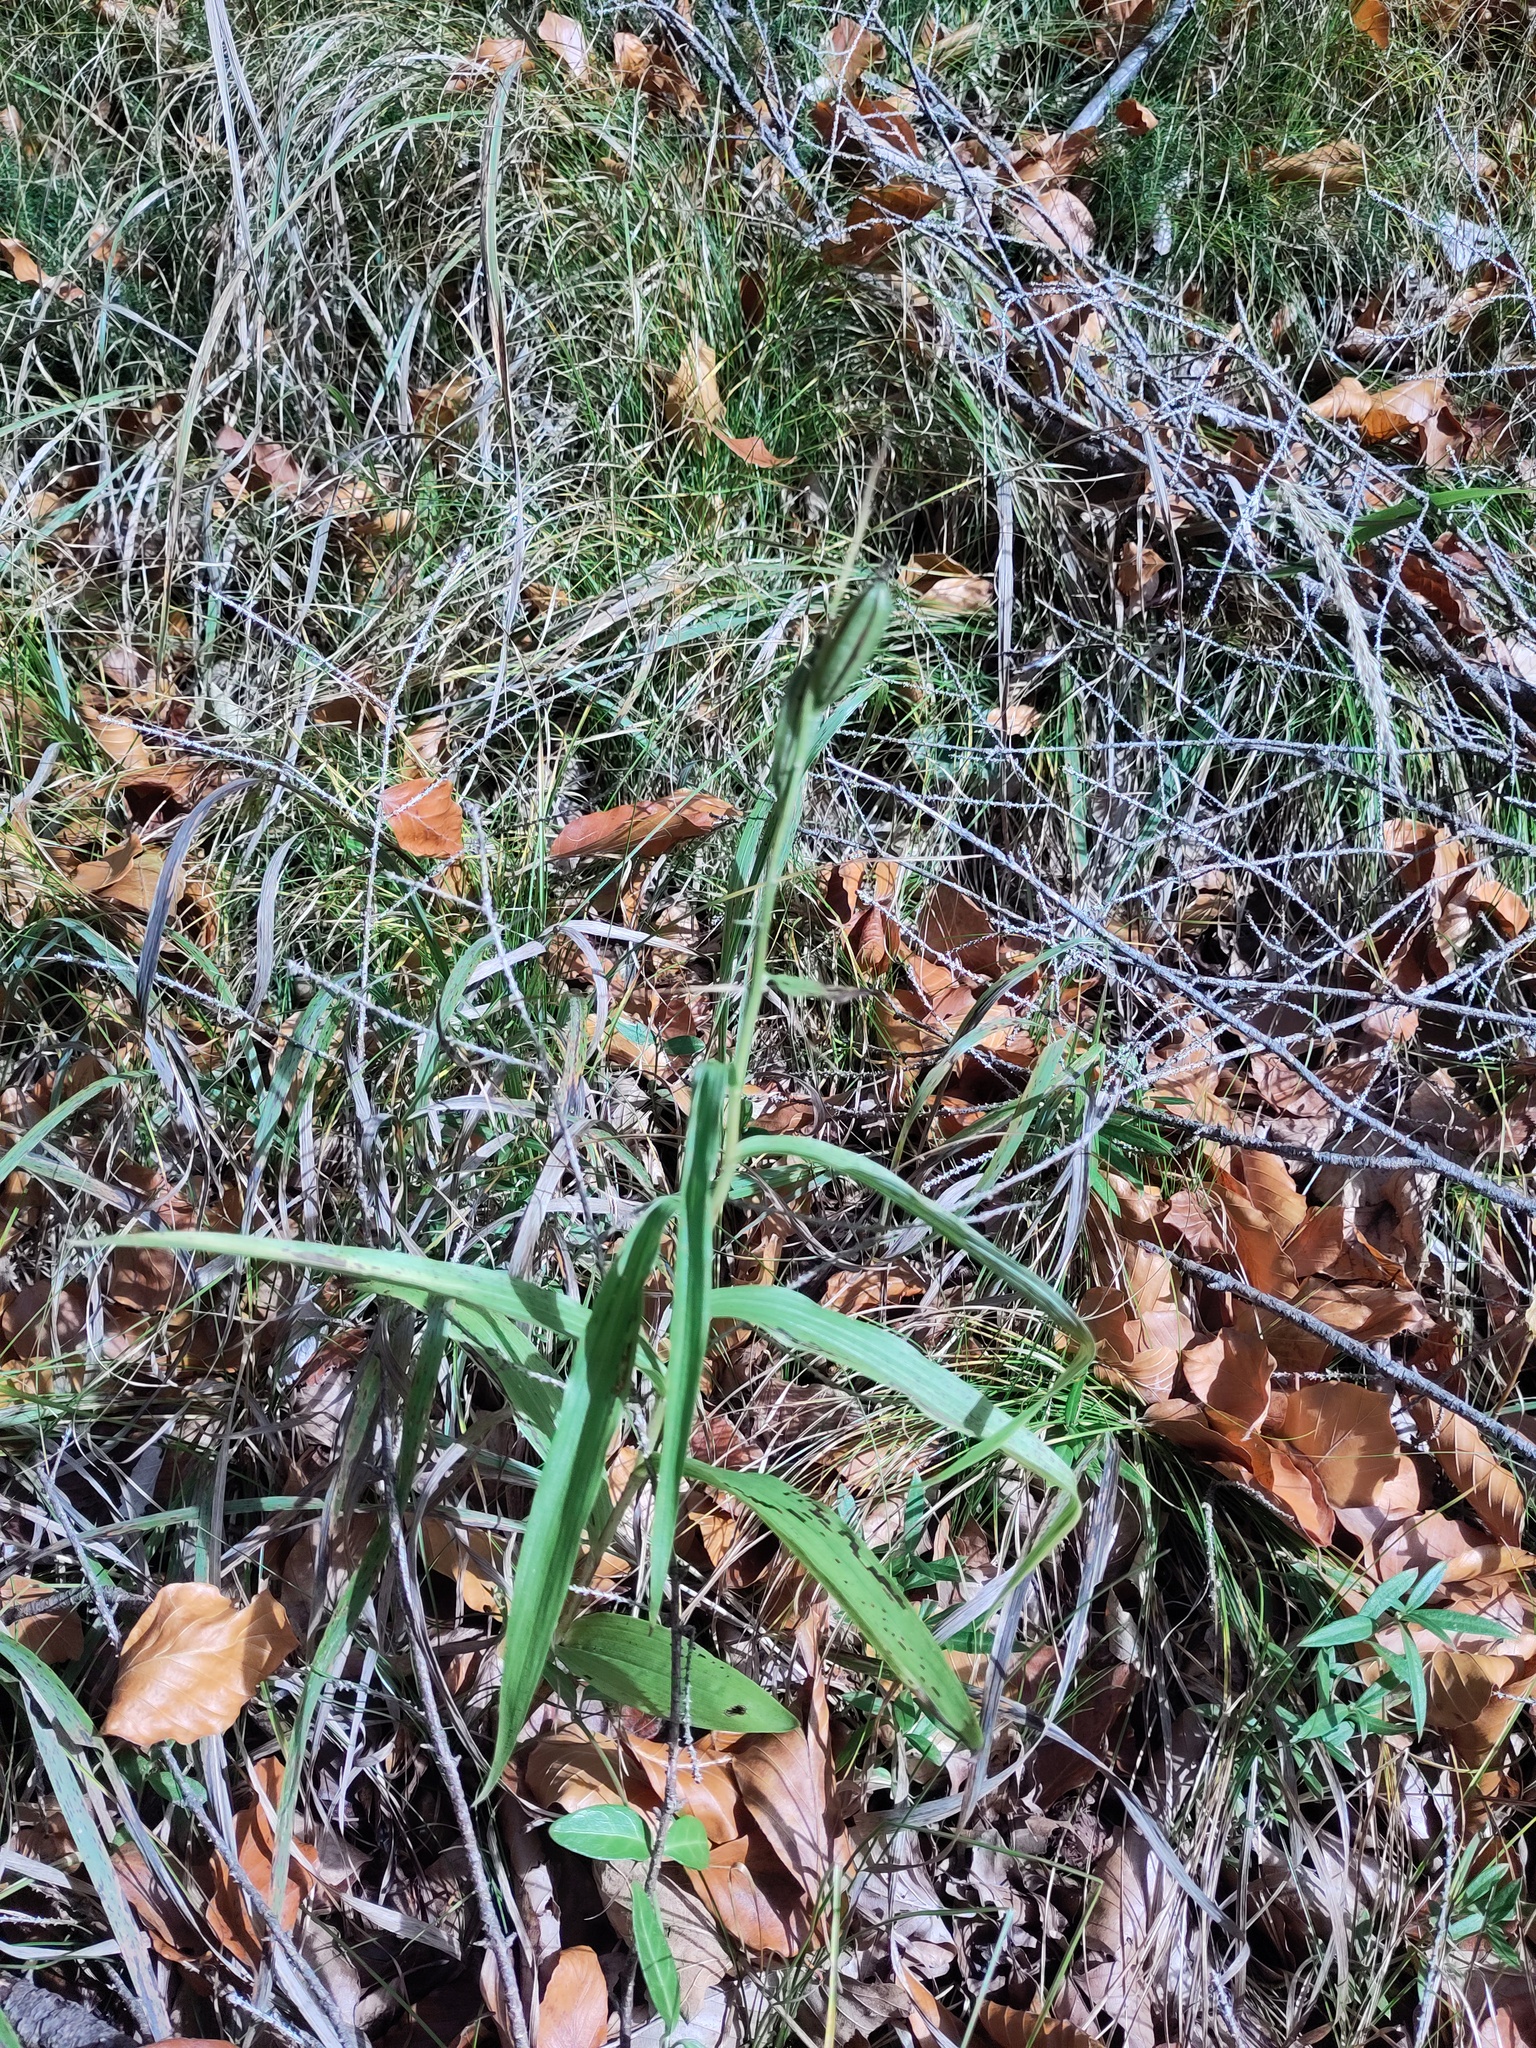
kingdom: Plantae
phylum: Tracheophyta
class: Liliopsida
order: Asparagales
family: Orchidaceae
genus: Cephalanthera
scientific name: Cephalanthera longifolia
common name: Narrow-leaved helleborine
